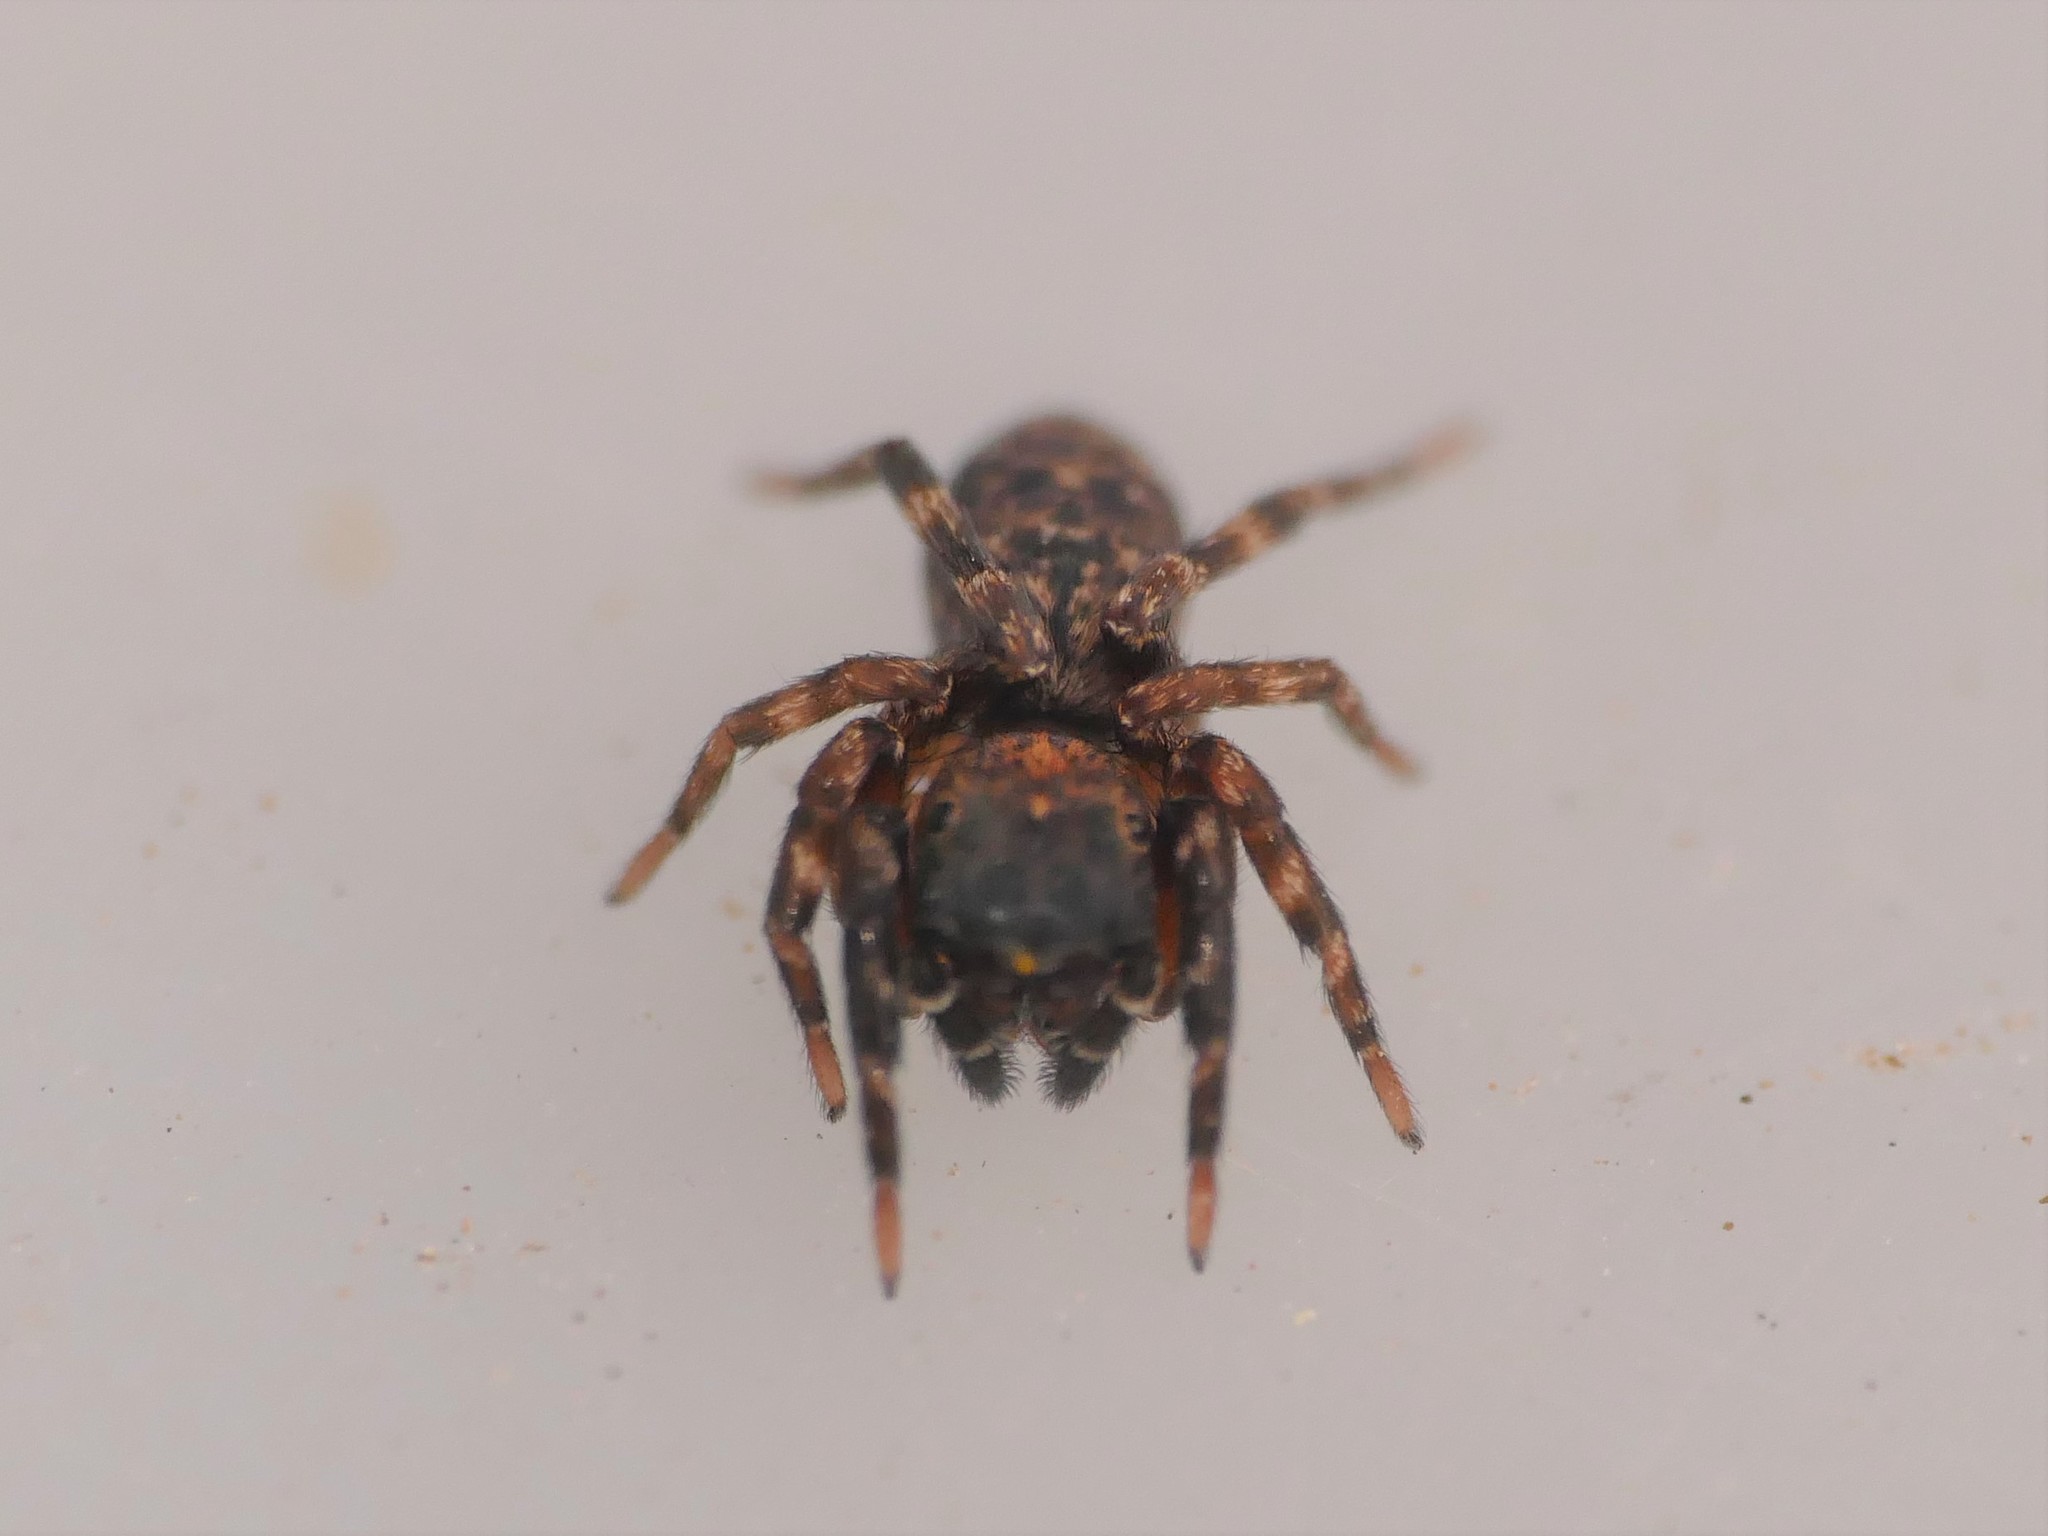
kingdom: Animalia
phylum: Arthropoda
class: Arachnida
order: Araneae
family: Salticidae
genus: Cyrba
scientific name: Cyrba algerina
